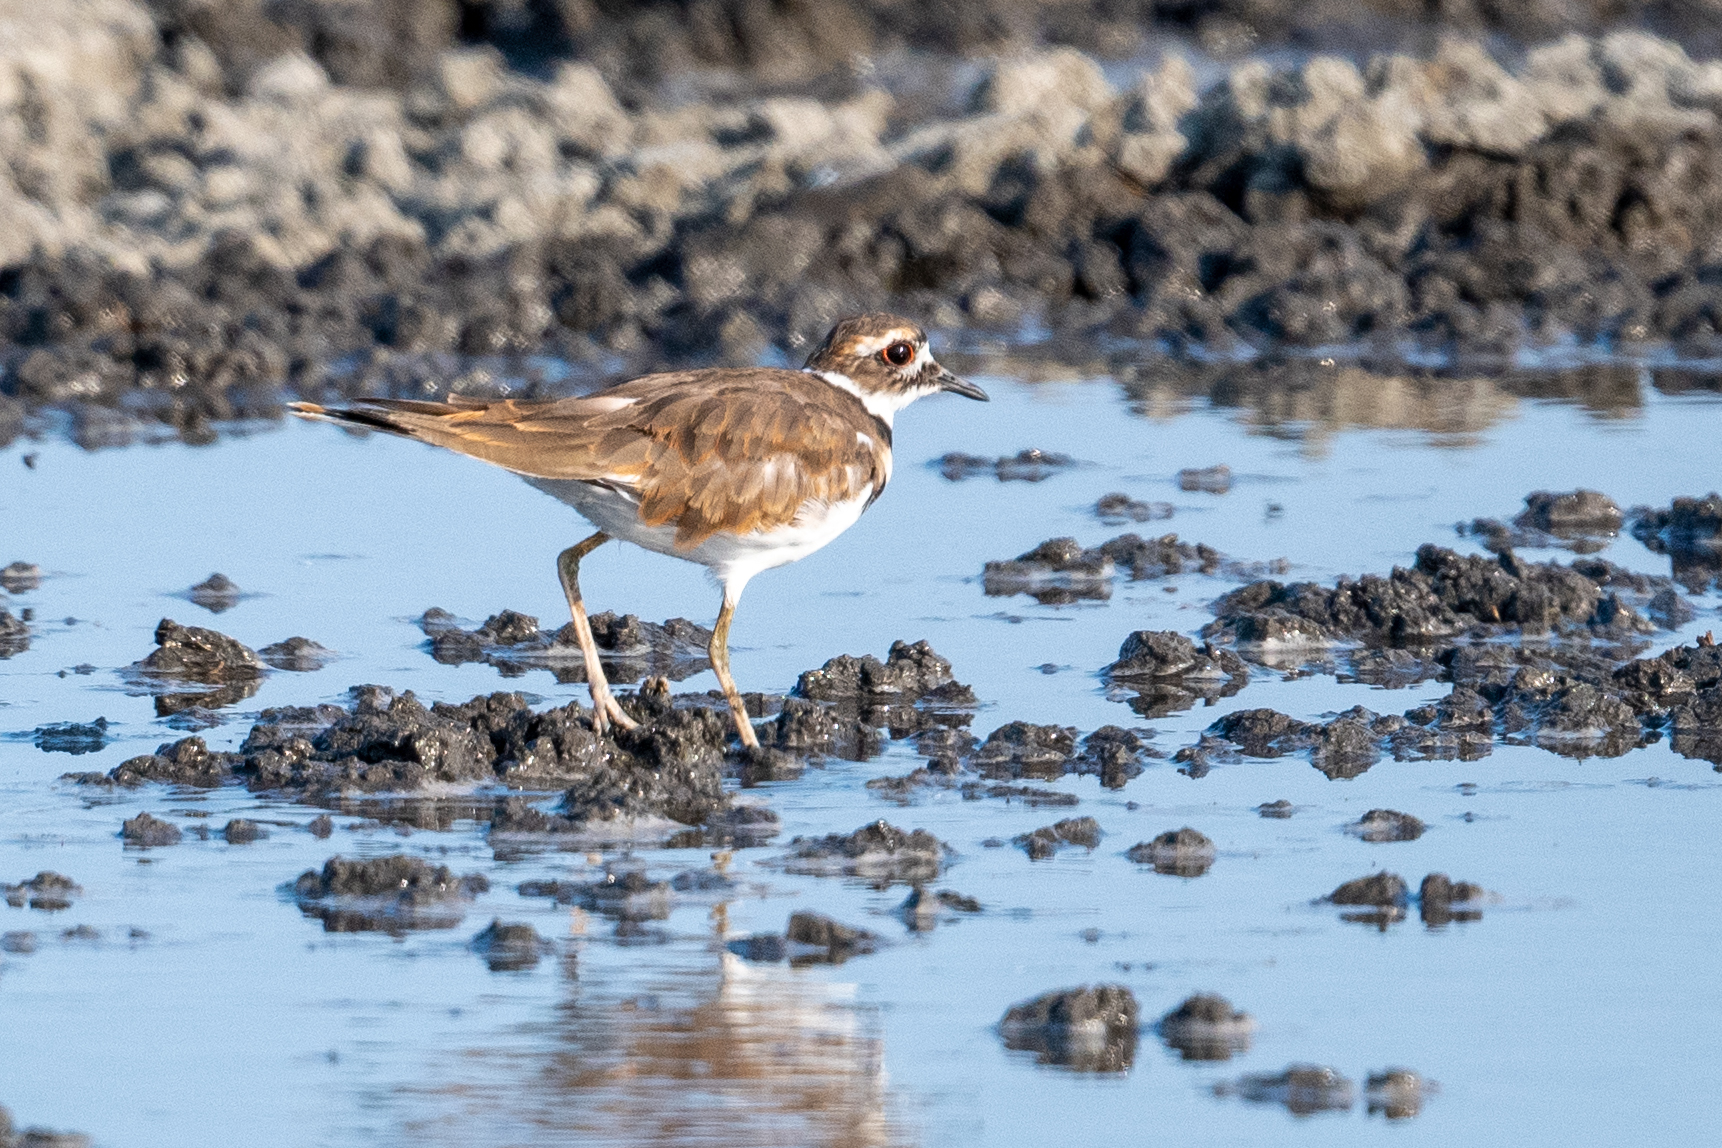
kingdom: Animalia
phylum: Chordata
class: Aves
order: Charadriiformes
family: Charadriidae
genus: Charadrius
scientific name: Charadrius vociferus
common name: Killdeer
